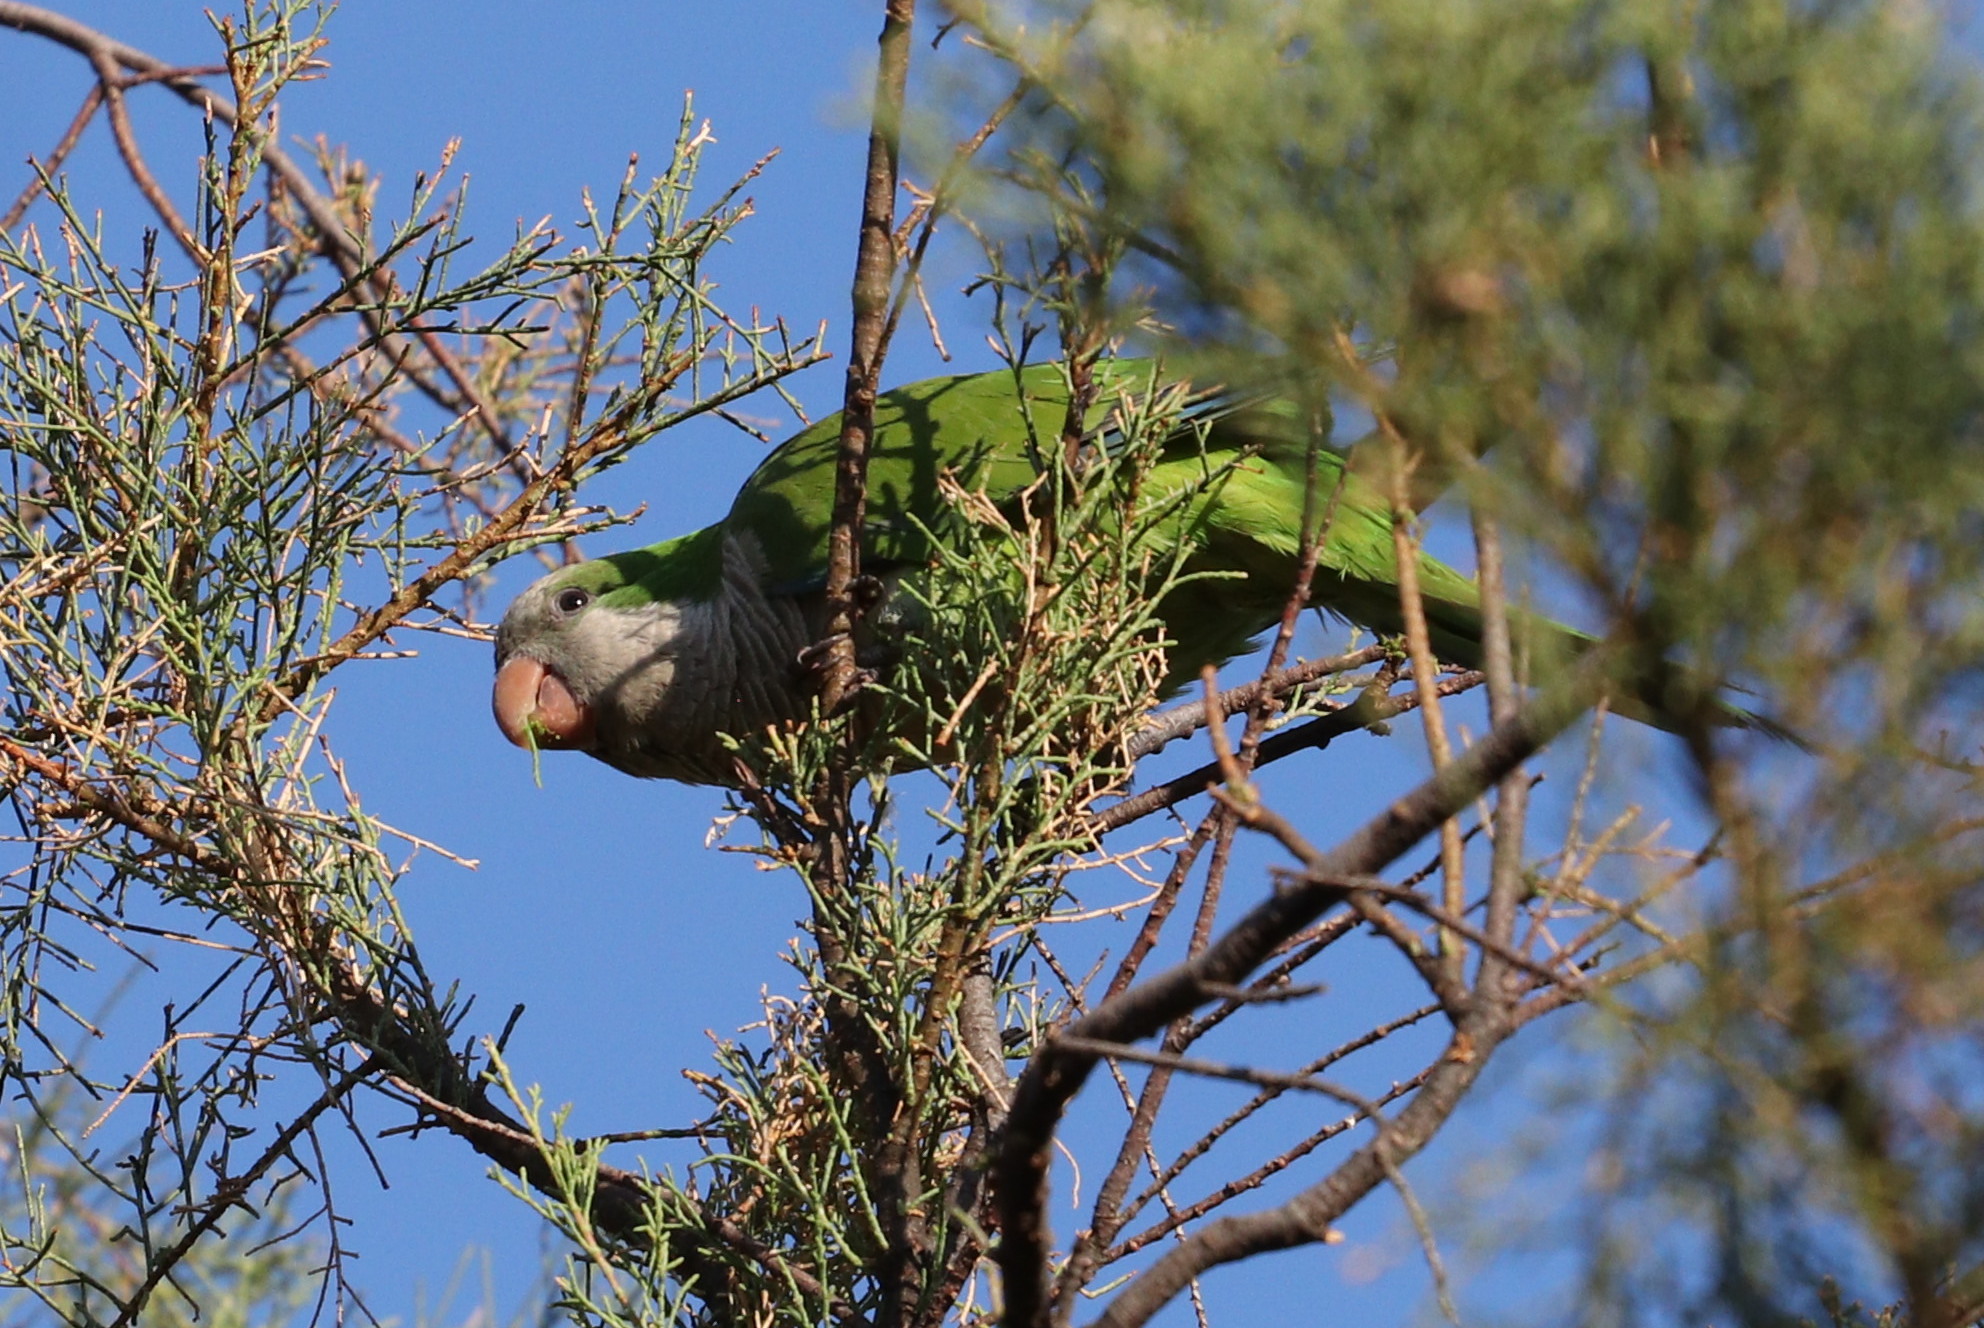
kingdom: Animalia
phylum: Chordata
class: Aves
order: Psittaciformes
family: Psittacidae
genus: Myiopsitta
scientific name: Myiopsitta monachus
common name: Monk parakeet
